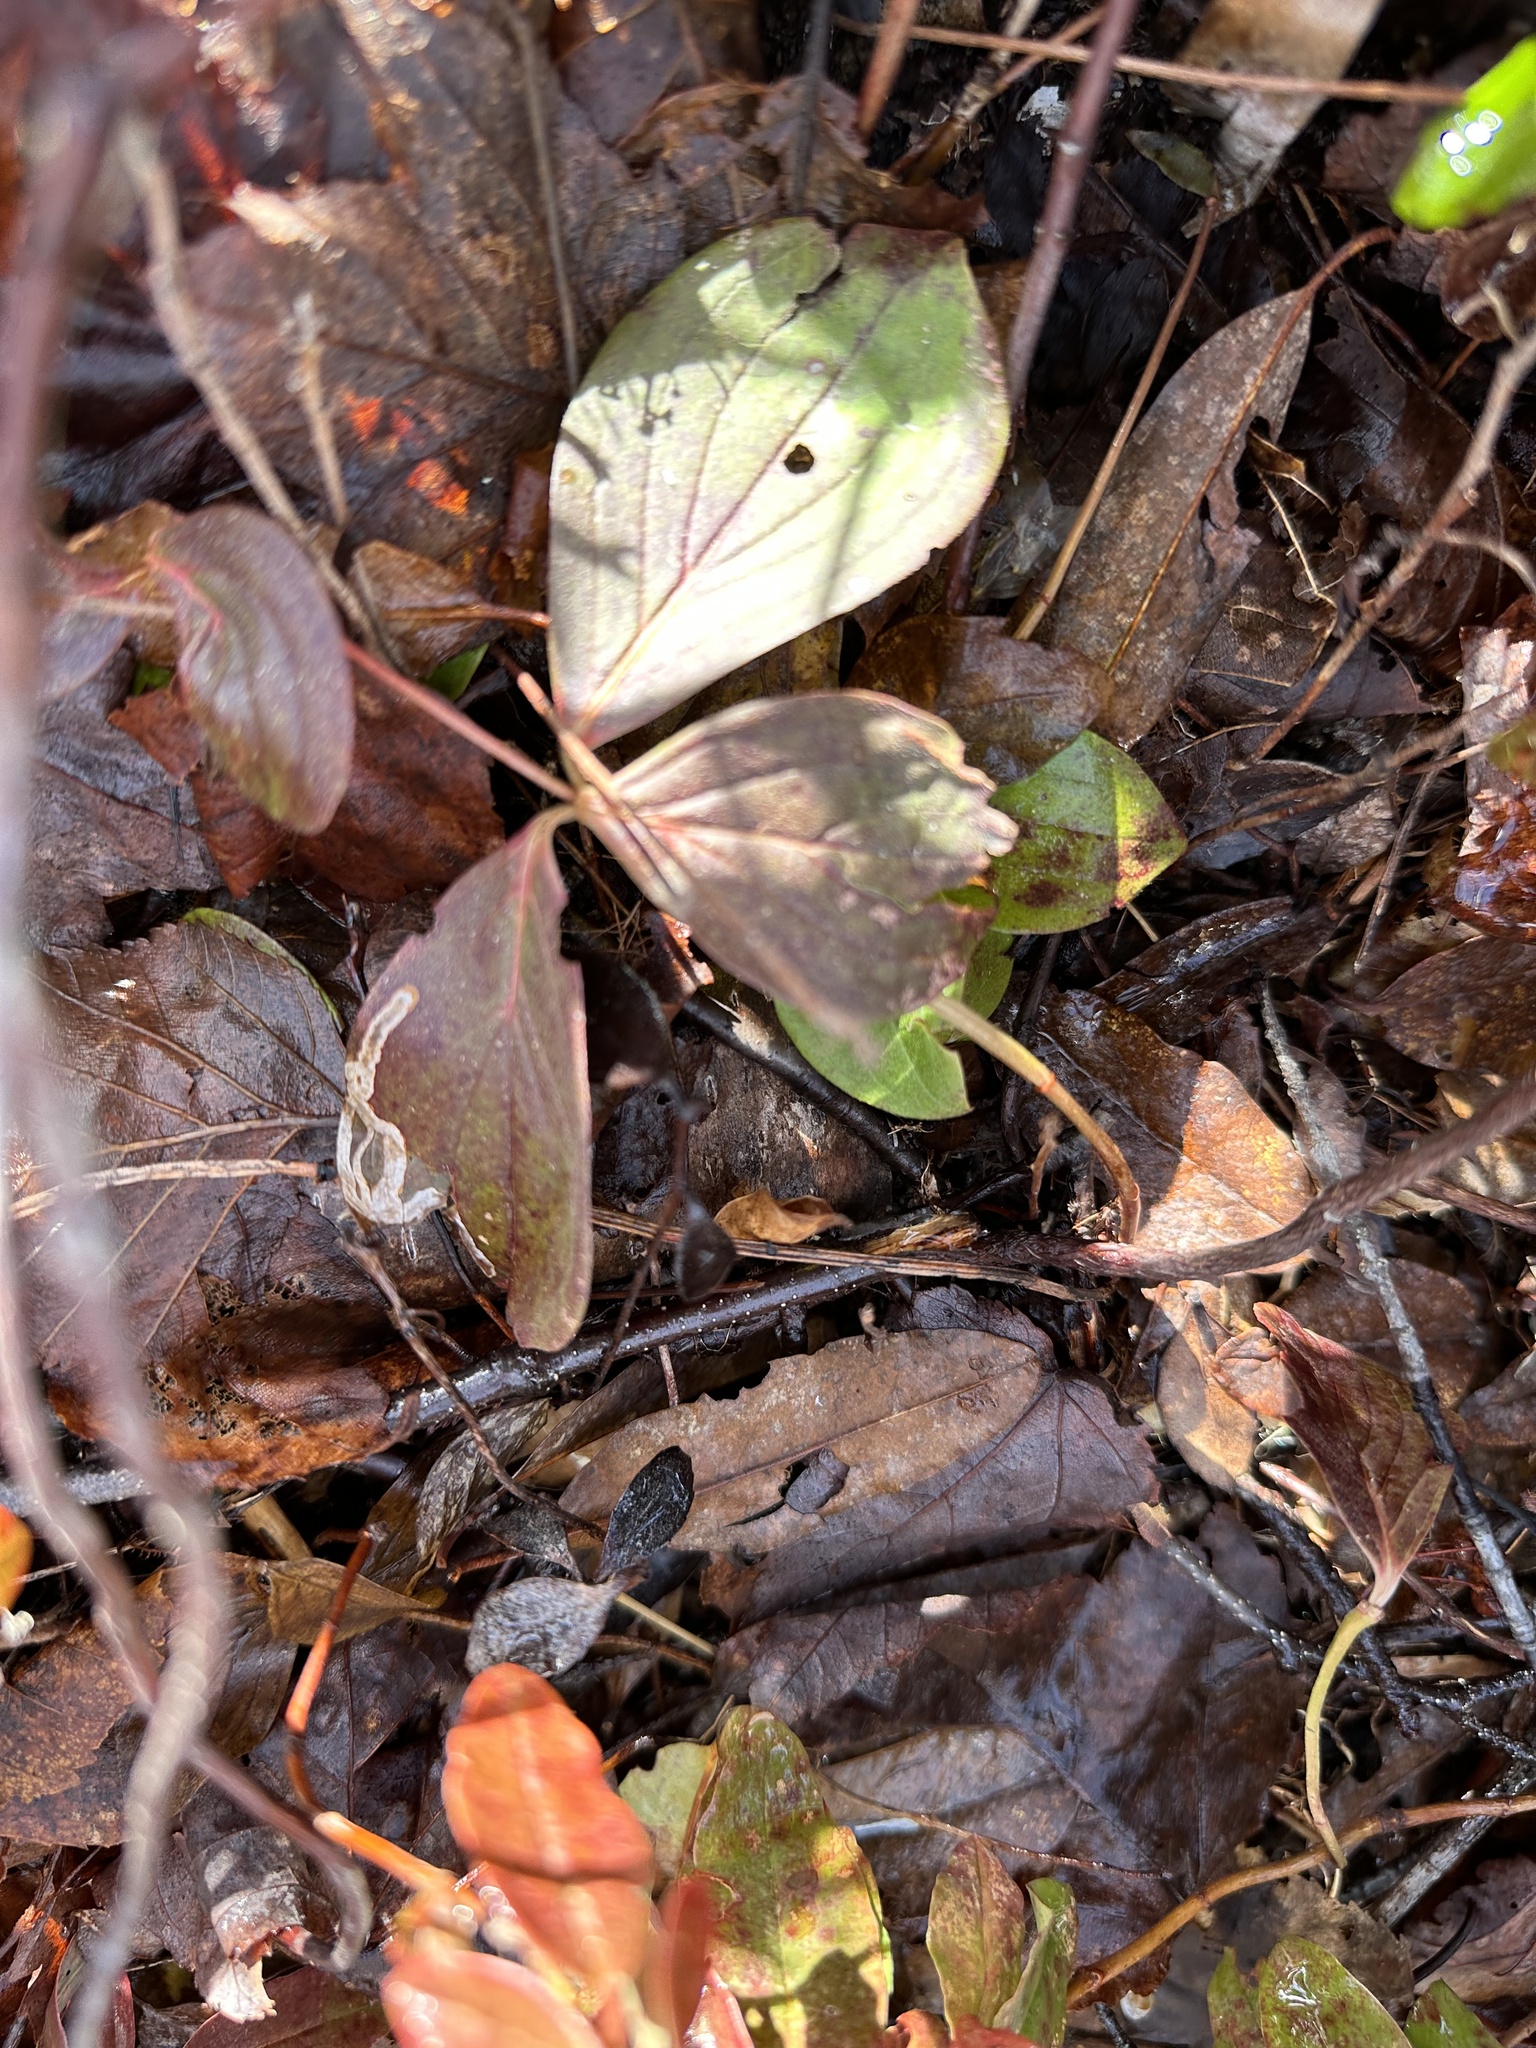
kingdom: Plantae
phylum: Tracheophyta
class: Magnoliopsida
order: Cornales
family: Cornaceae
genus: Cornus
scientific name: Cornus canadensis
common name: Creeping dogwood
